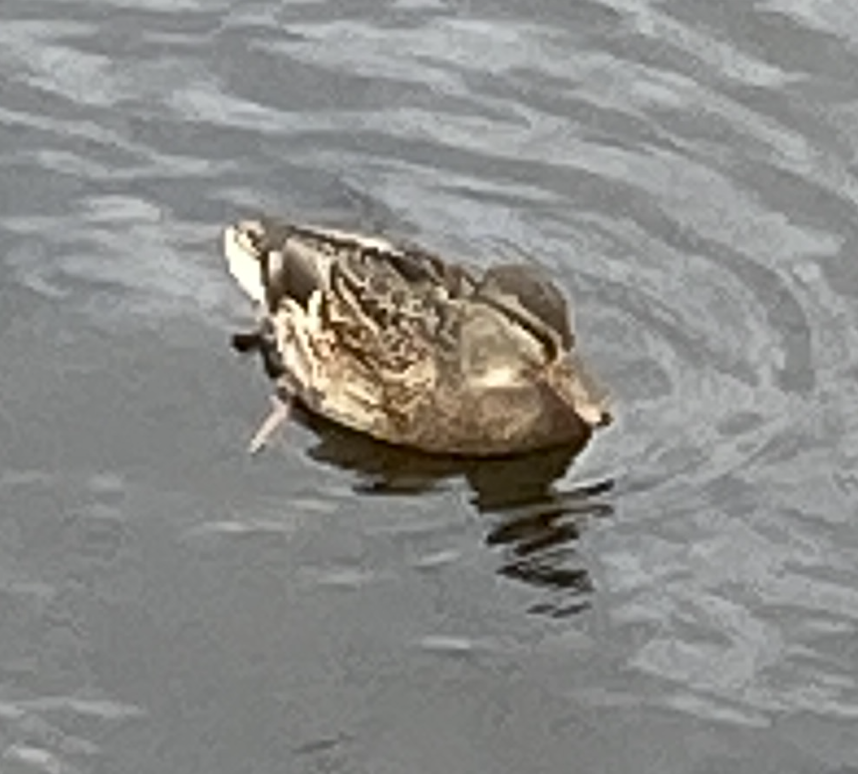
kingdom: Animalia
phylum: Chordata
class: Aves
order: Anseriformes
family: Anatidae
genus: Anas
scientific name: Anas platyrhynchos
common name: Mallard
